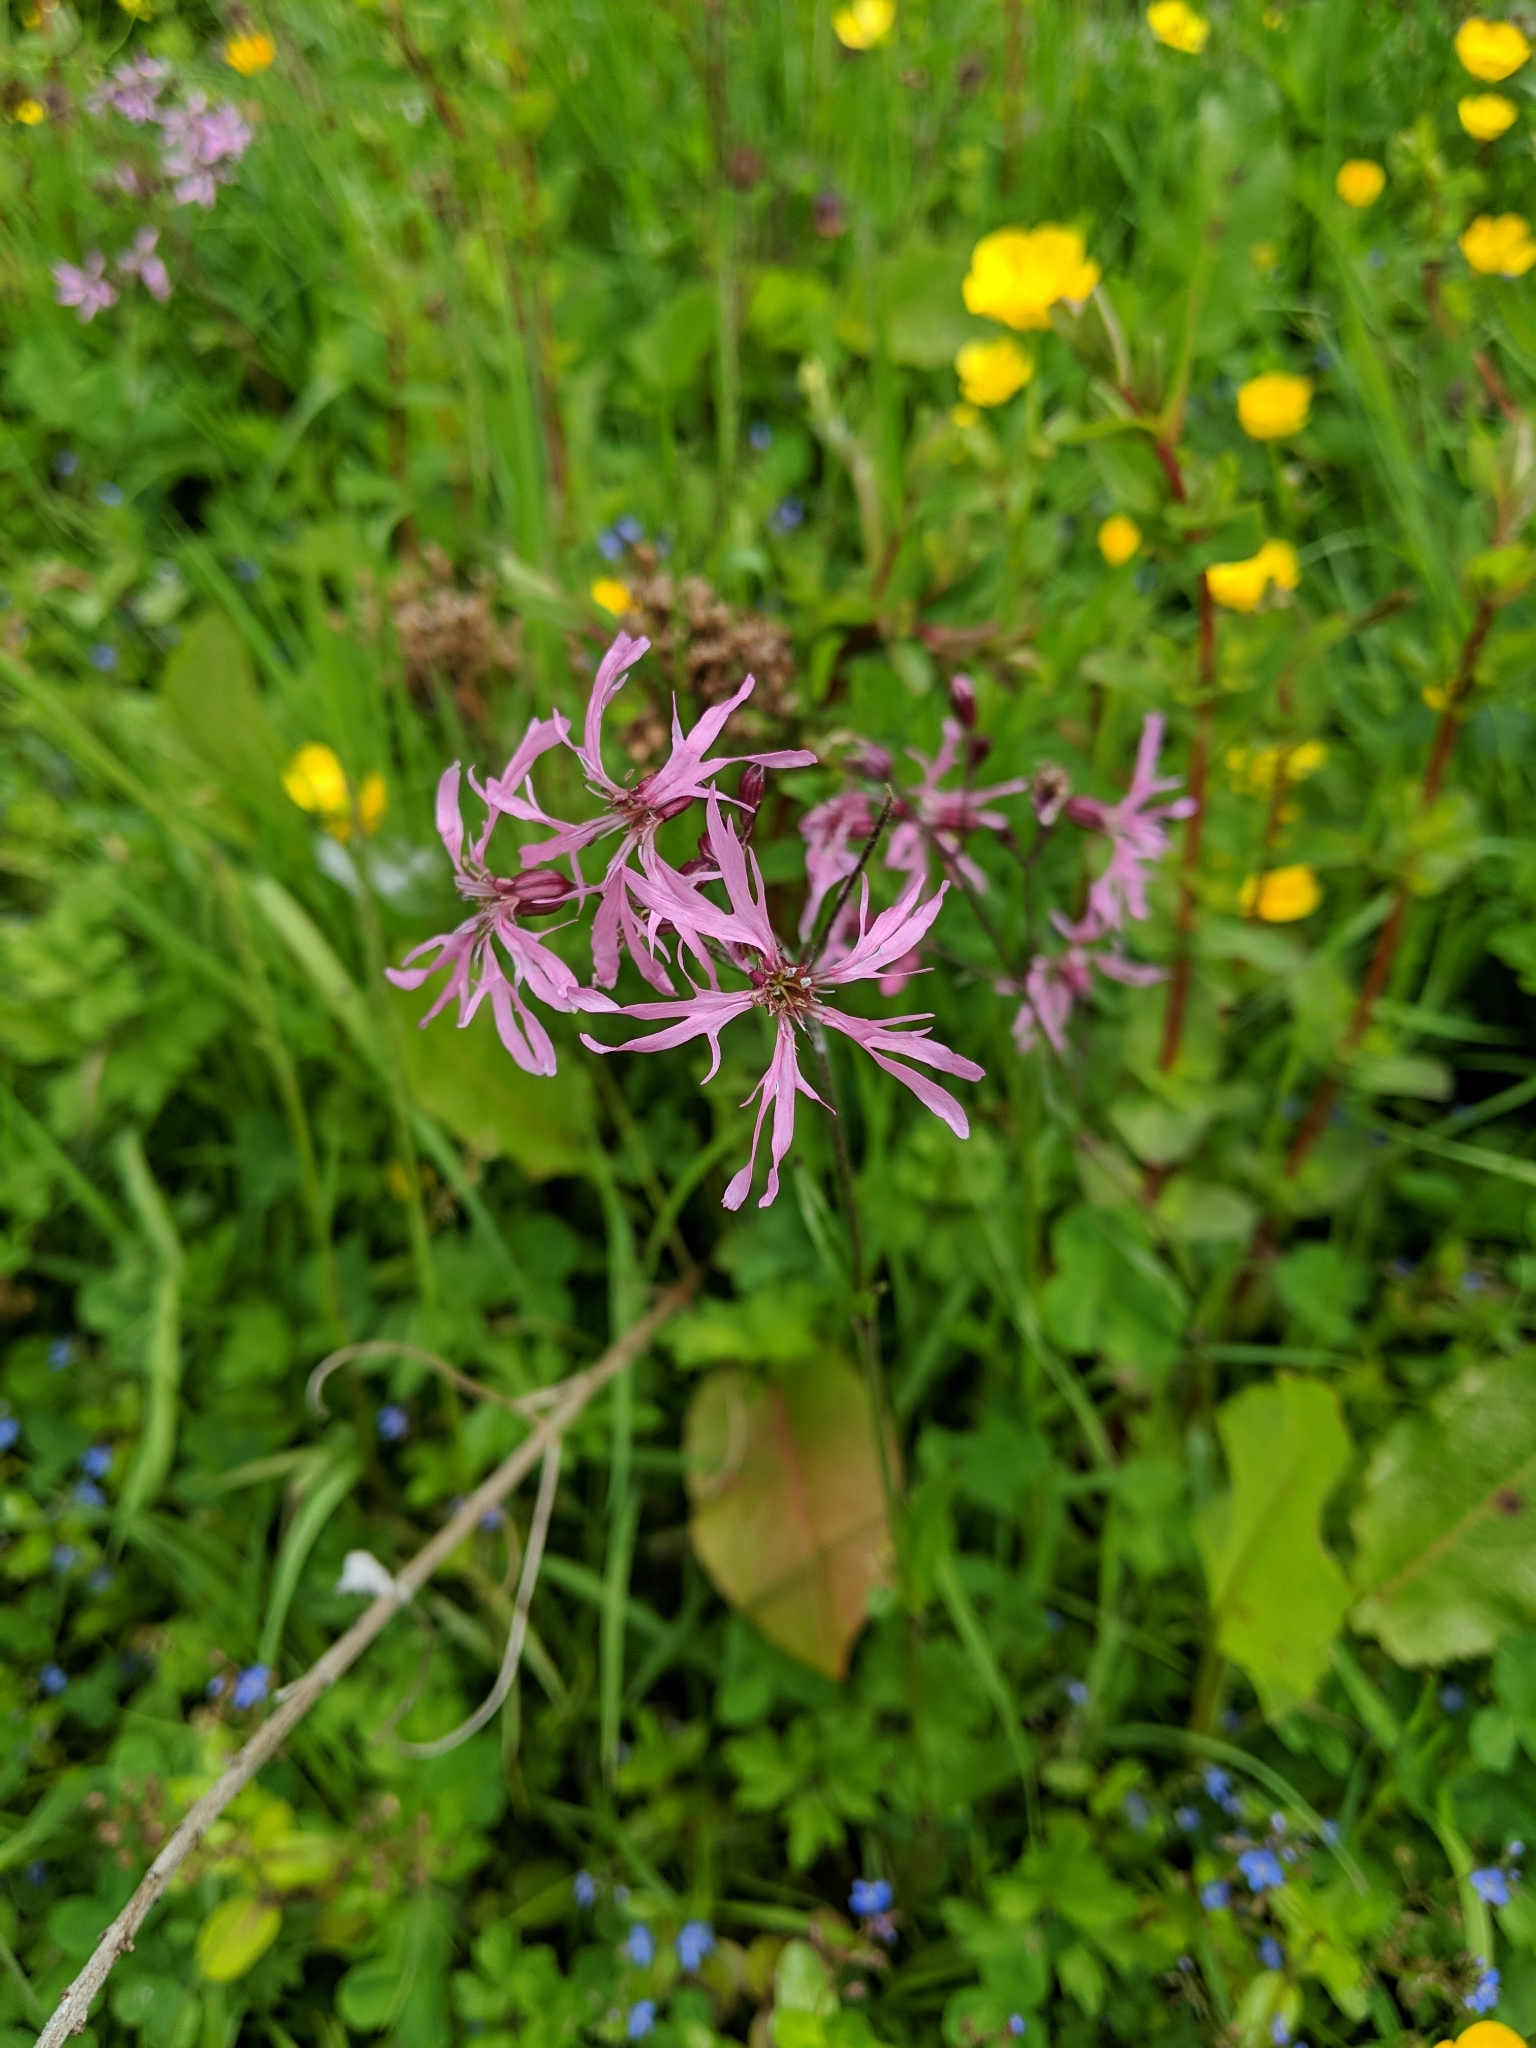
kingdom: Plantae
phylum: Tracheophyta
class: Magnoliopsida
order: Caryophyllales
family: Caryophyllaceae
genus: Silene
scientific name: Silene flos-cuculi
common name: Ragged-robin
